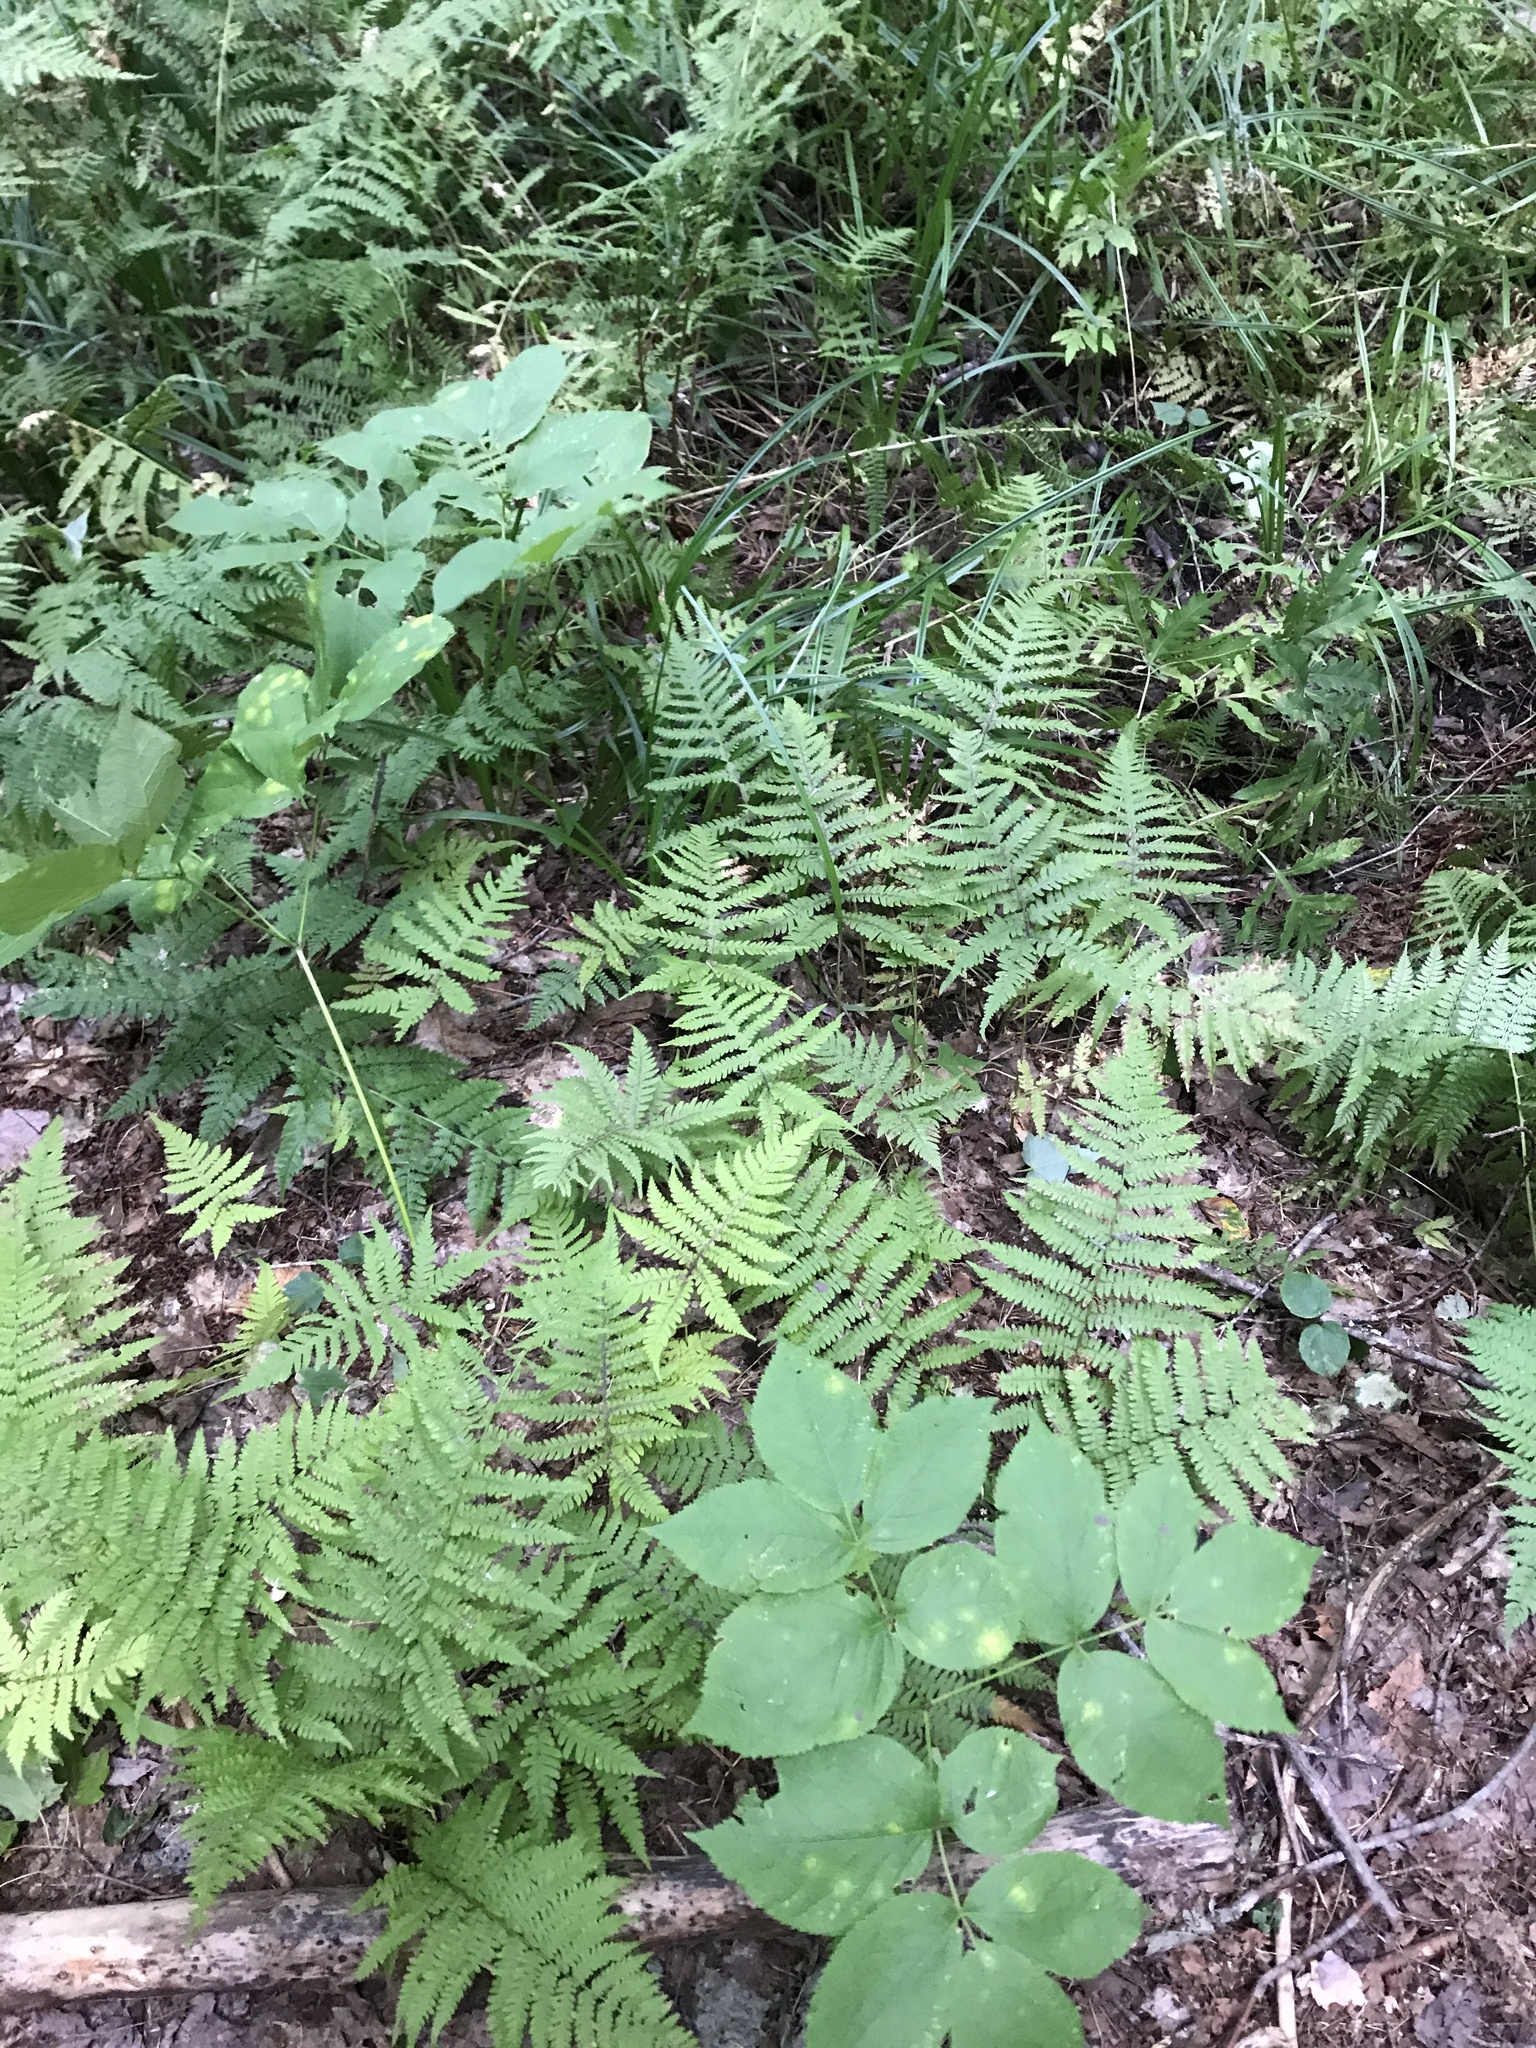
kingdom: Plantae
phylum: Tracheophyta
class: Polypodiopsida
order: Polypodiales
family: Thelypteridaceae
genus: Phegopteris
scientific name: Phegopteris connectilis
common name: Beech fern
